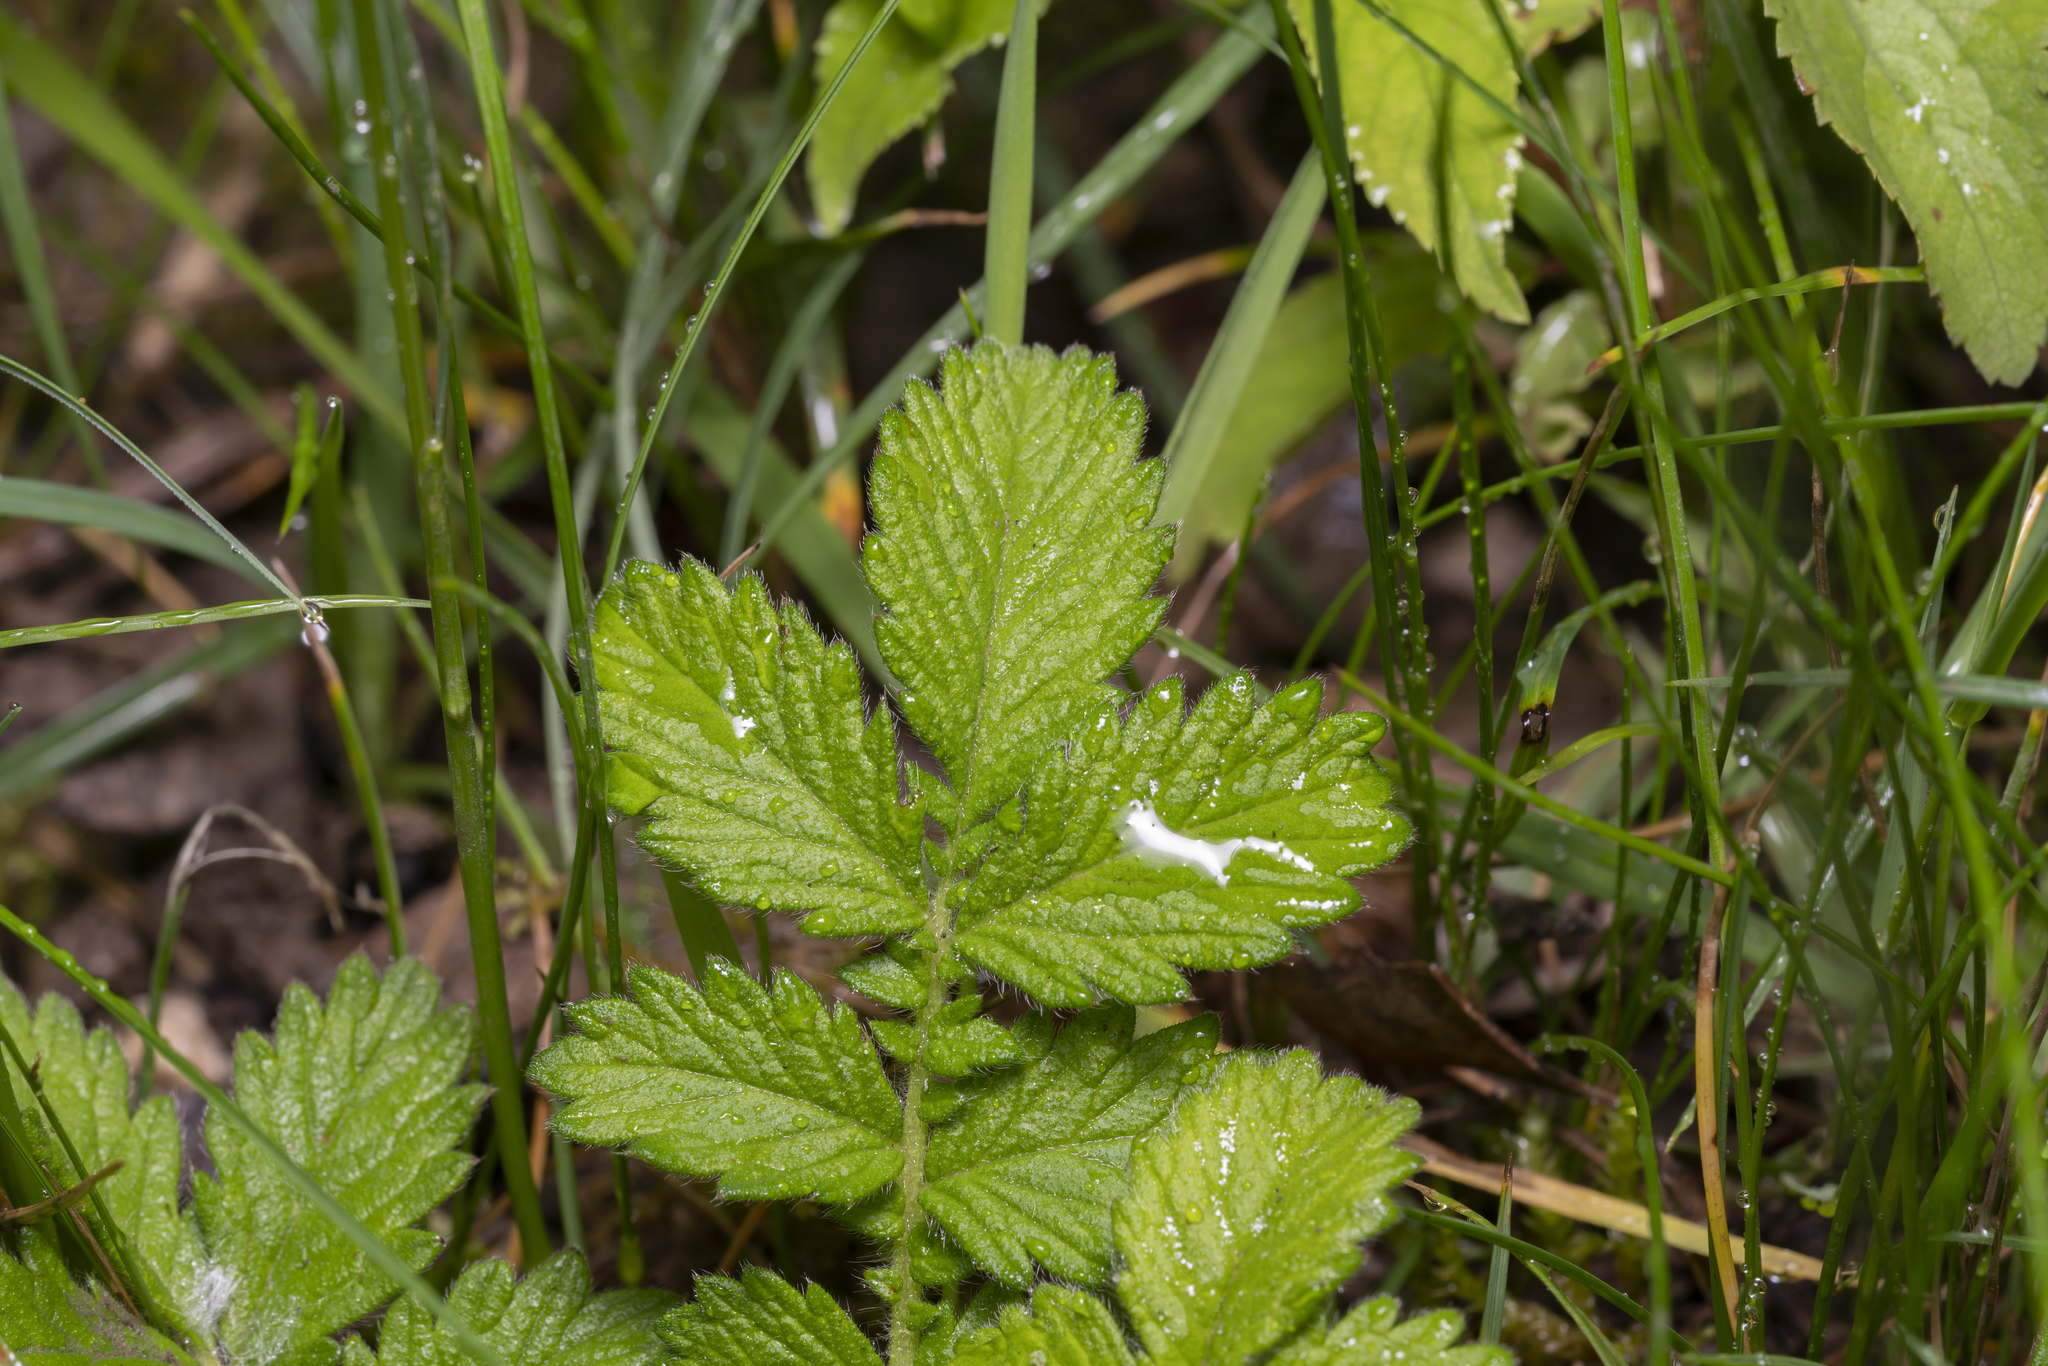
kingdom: Plantae
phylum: Tracheophyta
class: Magnoliopsida
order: Rosales
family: Rosaceae
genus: Agrimonia
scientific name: Agrimonia eupatoria
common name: Agrimony
